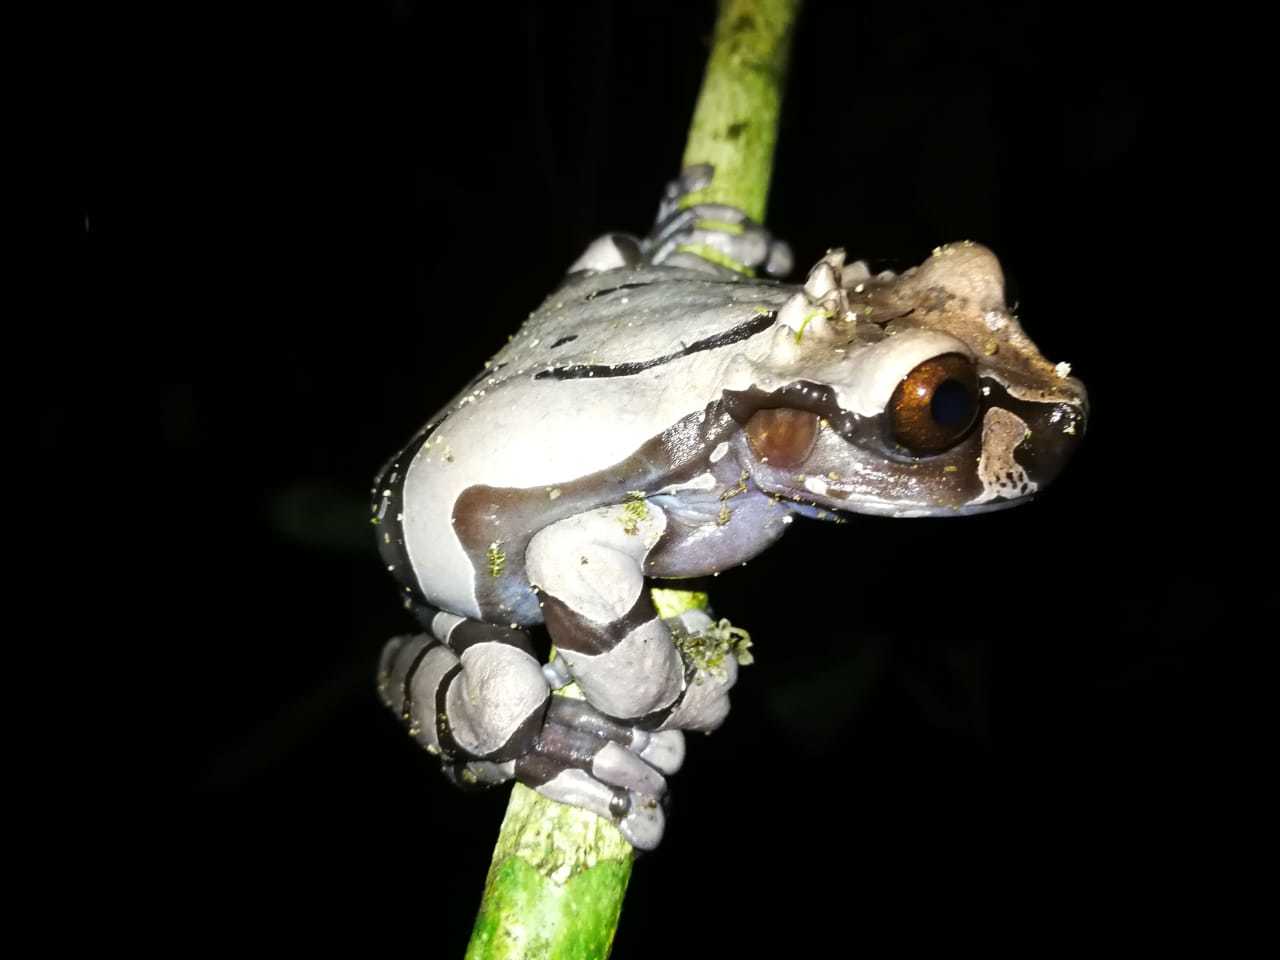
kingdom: Animalia
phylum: Chordata
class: Amphibia
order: Anura
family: Hylidae
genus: Triprion
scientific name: Triprion spinosus
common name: Coronated treefrog
